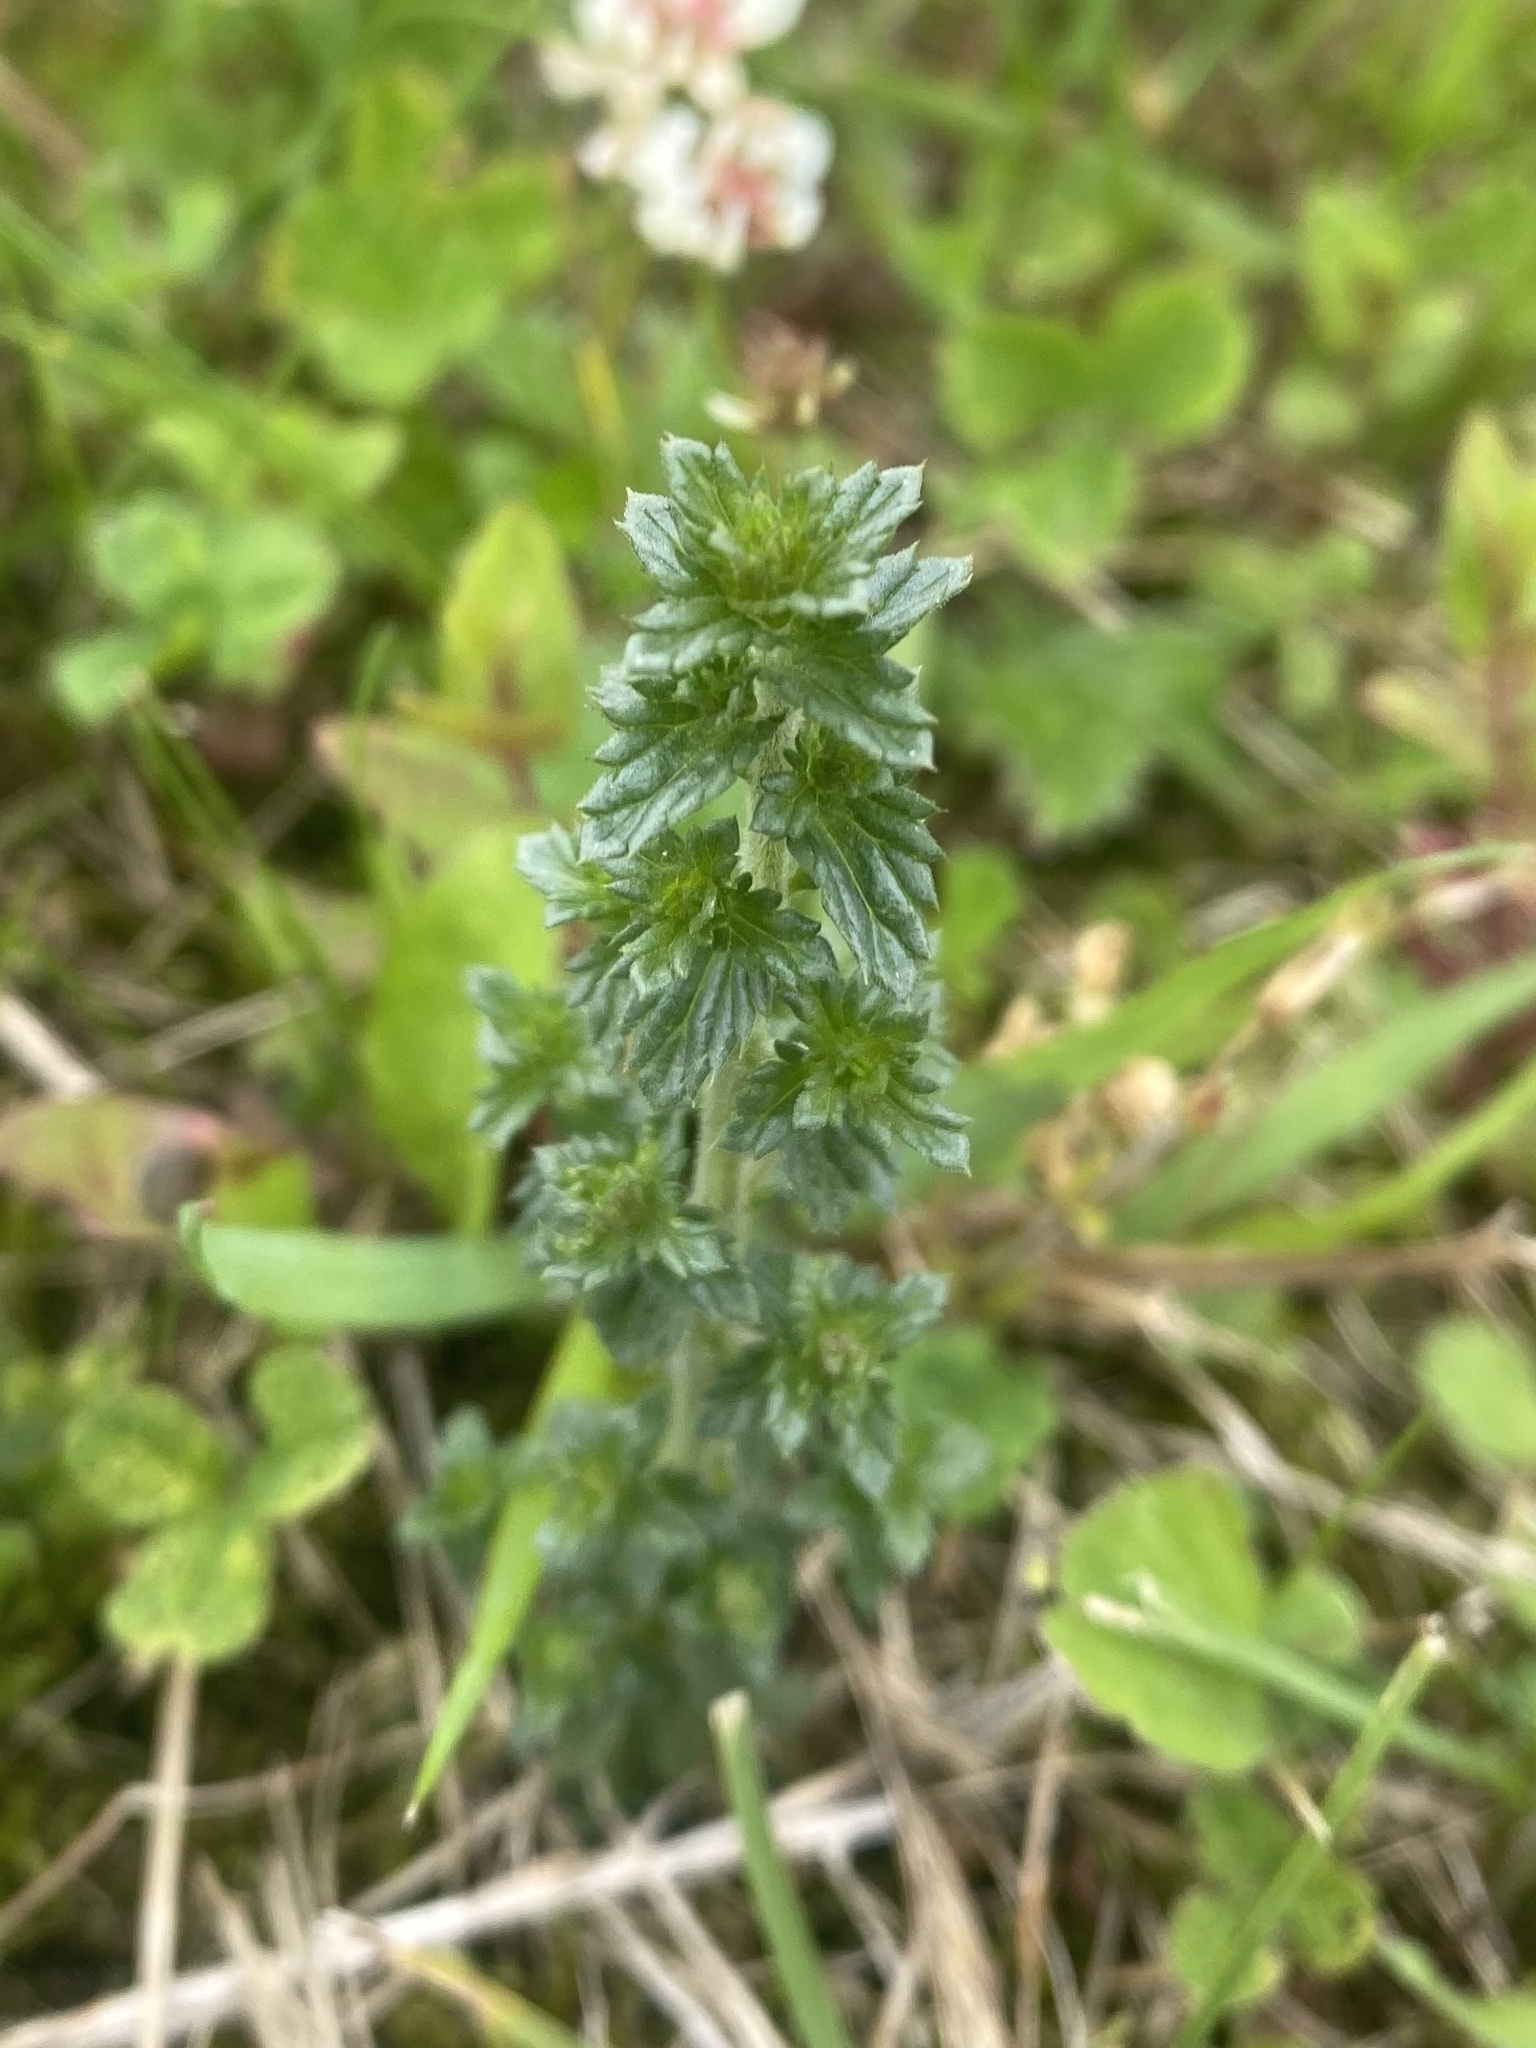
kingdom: Plantae
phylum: Tracheophyta
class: Magnoliopsida
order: Lamiales
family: Orobanchaceae
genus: Euphrasia
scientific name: Euphrasia maximowiczii
